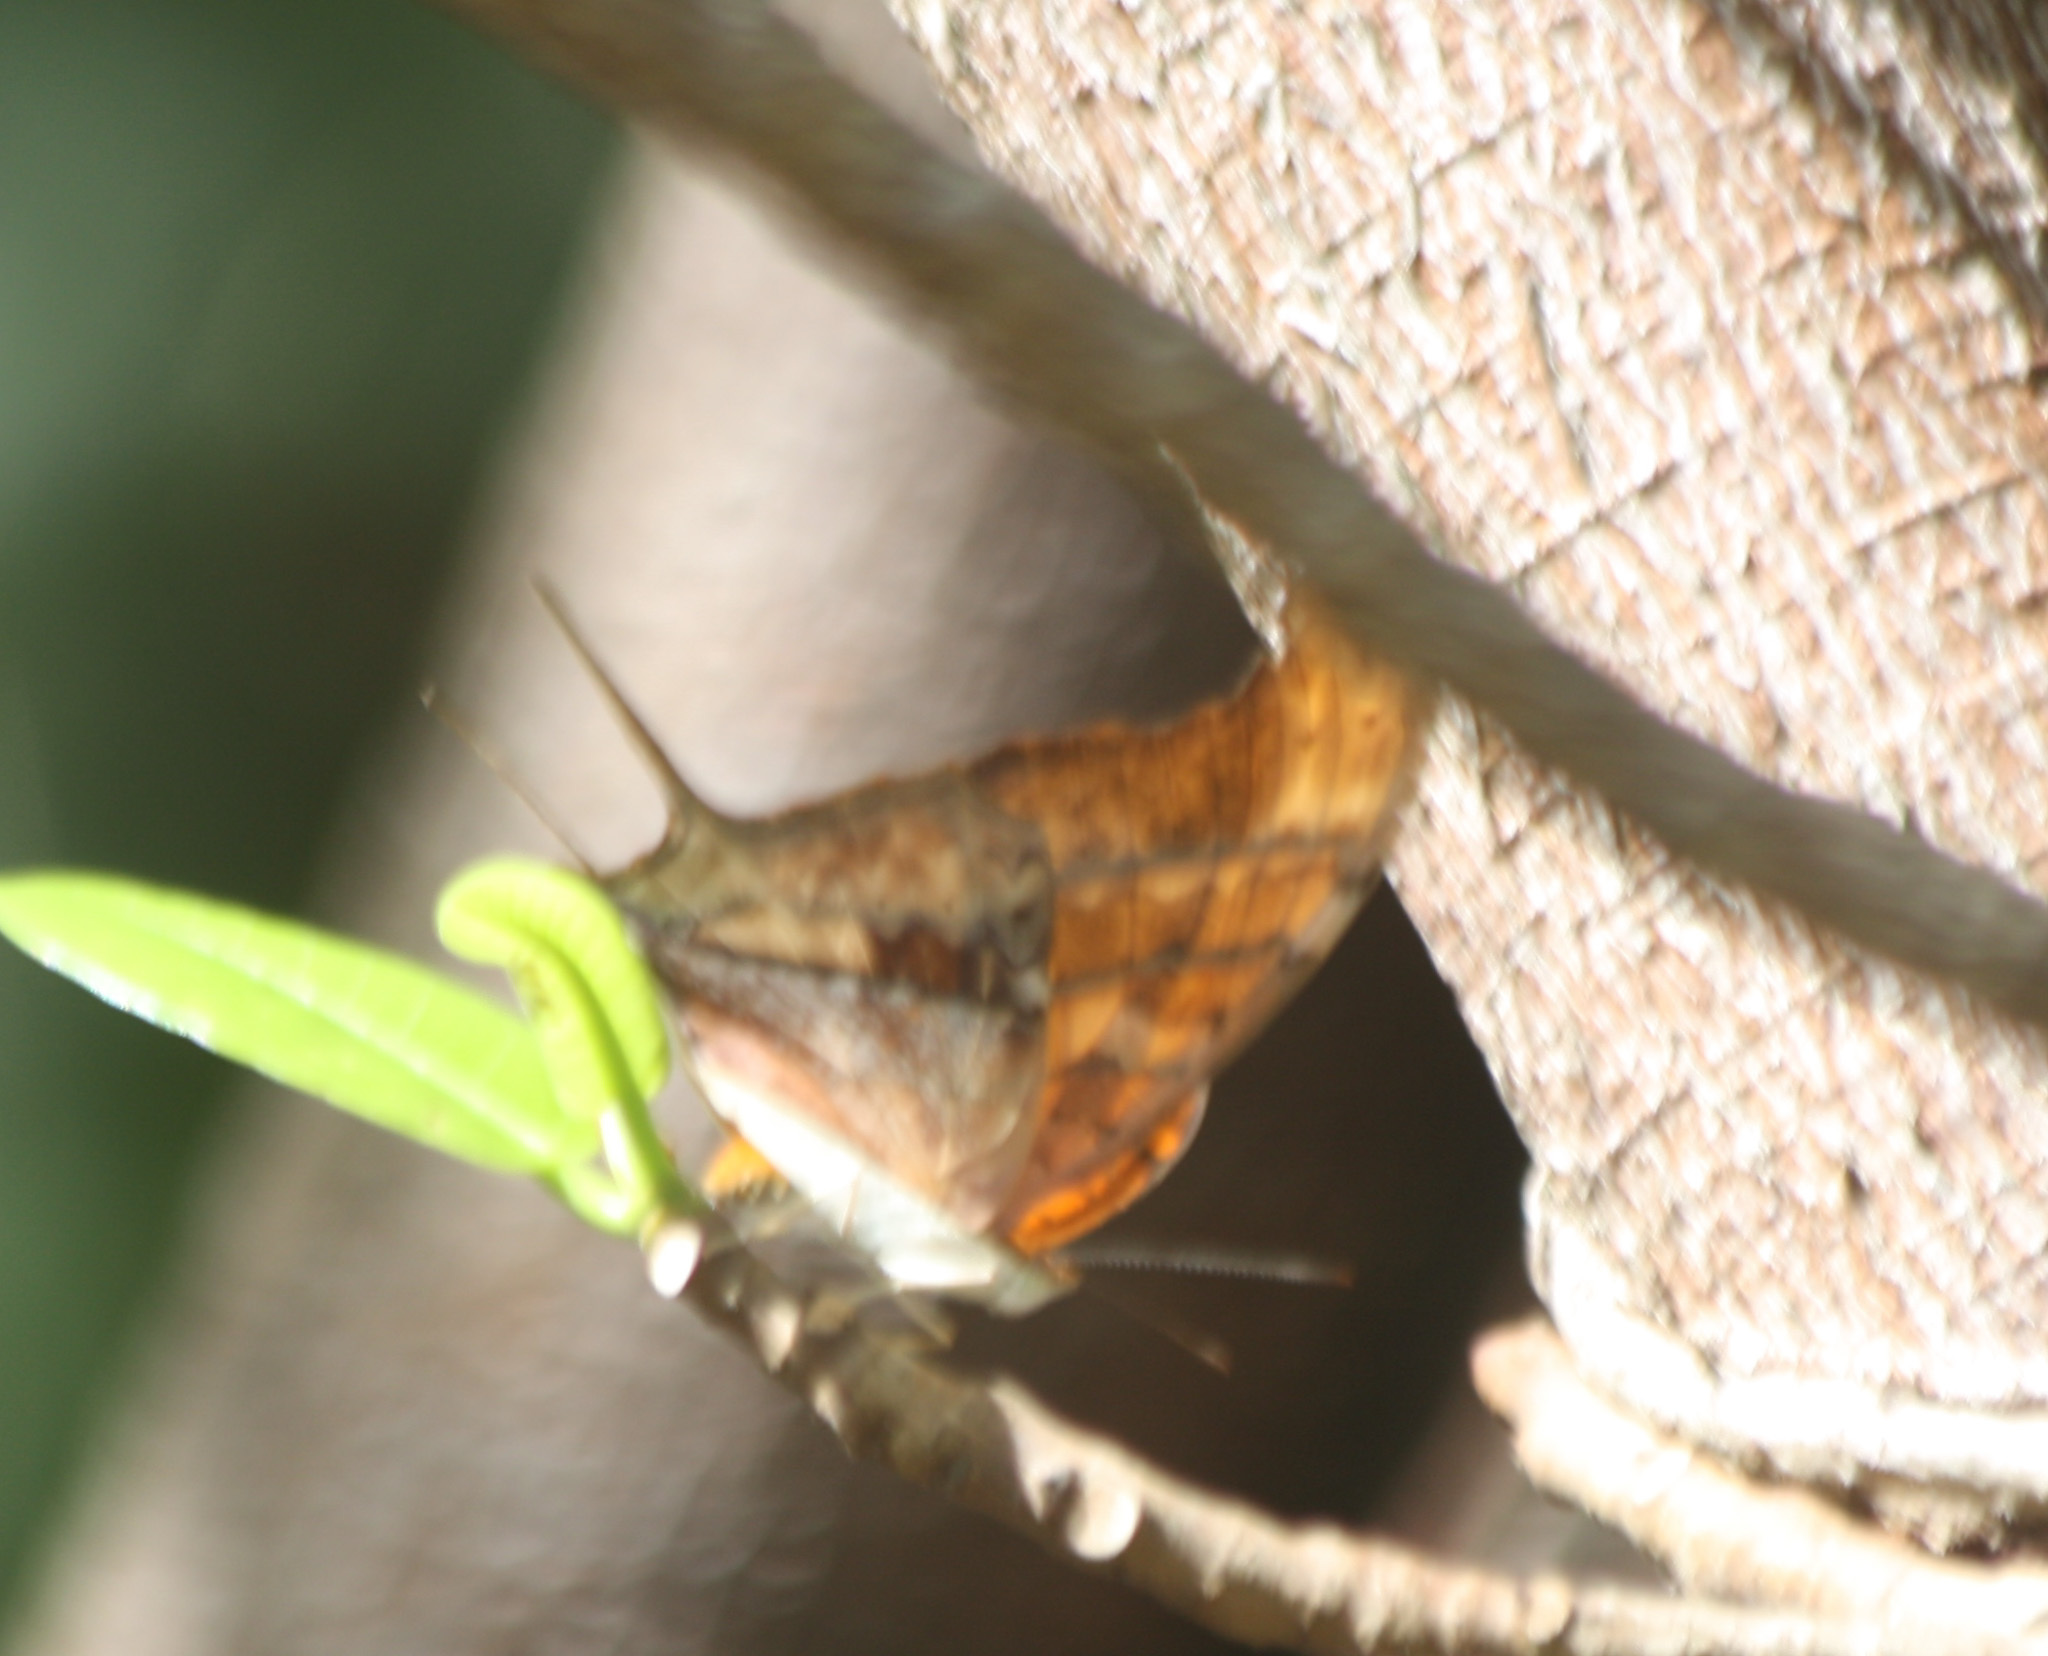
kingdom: Animalia
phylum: Arthropoda
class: Insecta
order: Lepidoptera
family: Nymphalidae
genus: Marpesia
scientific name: Marpesia petreus
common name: Red dagger wing
